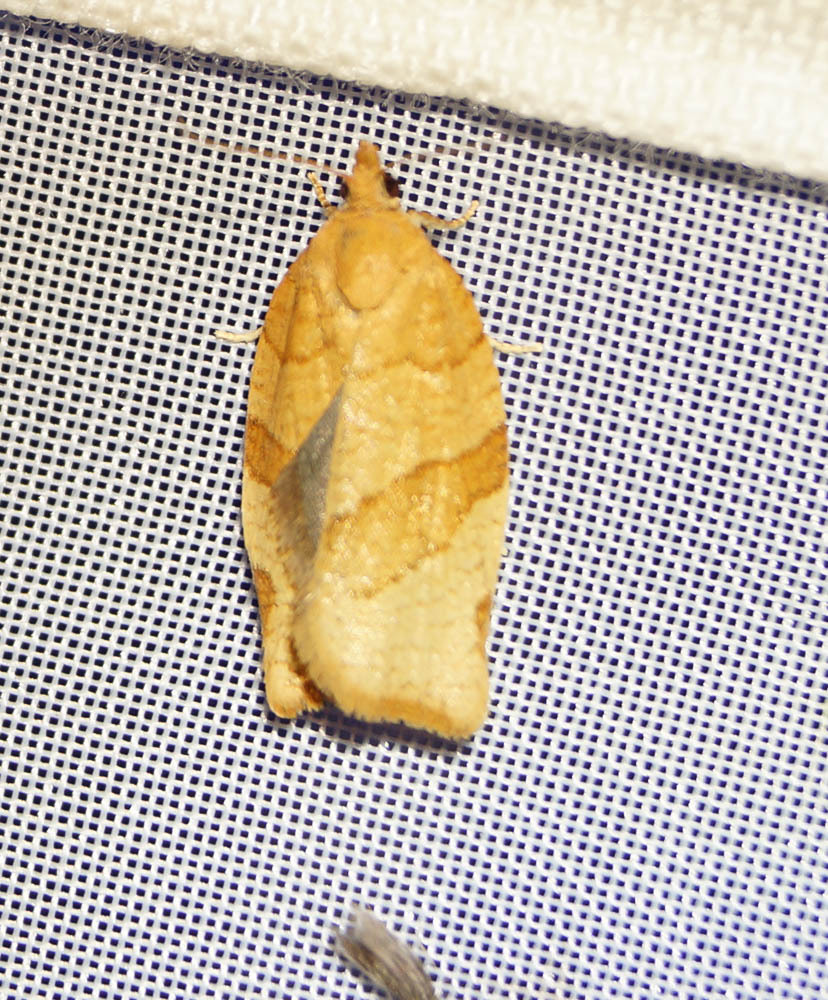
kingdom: Animalia
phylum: Arthropoda
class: Insecta
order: Lepidoptera
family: Tortricidae
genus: Pandemis
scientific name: Pandemis cerasana
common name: Barred fruit-tree tortrix
